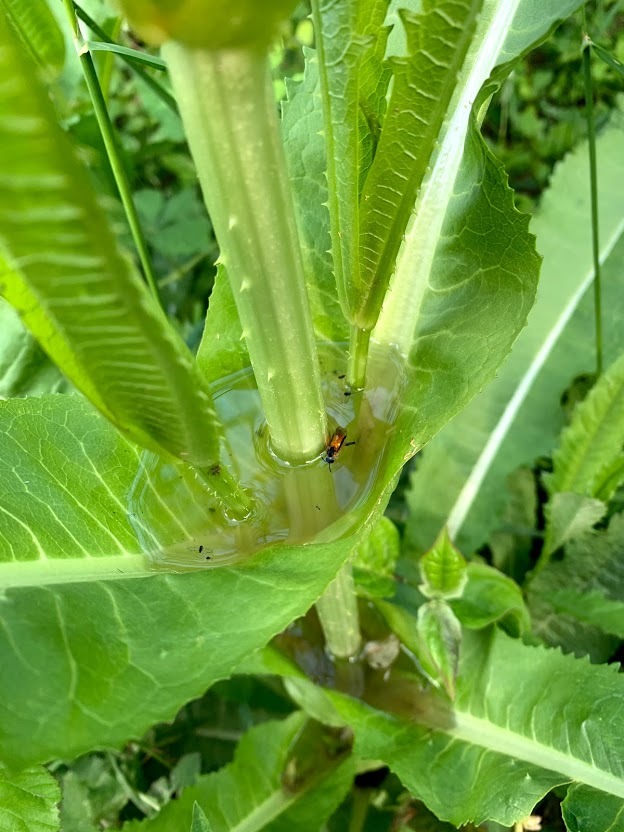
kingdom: Plantae
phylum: Tracheophyta
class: Magnoliopsida
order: Dipsacales
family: Caprifoliaceae
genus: Dipsacus
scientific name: Dipsacus fullonum
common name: Teasel
